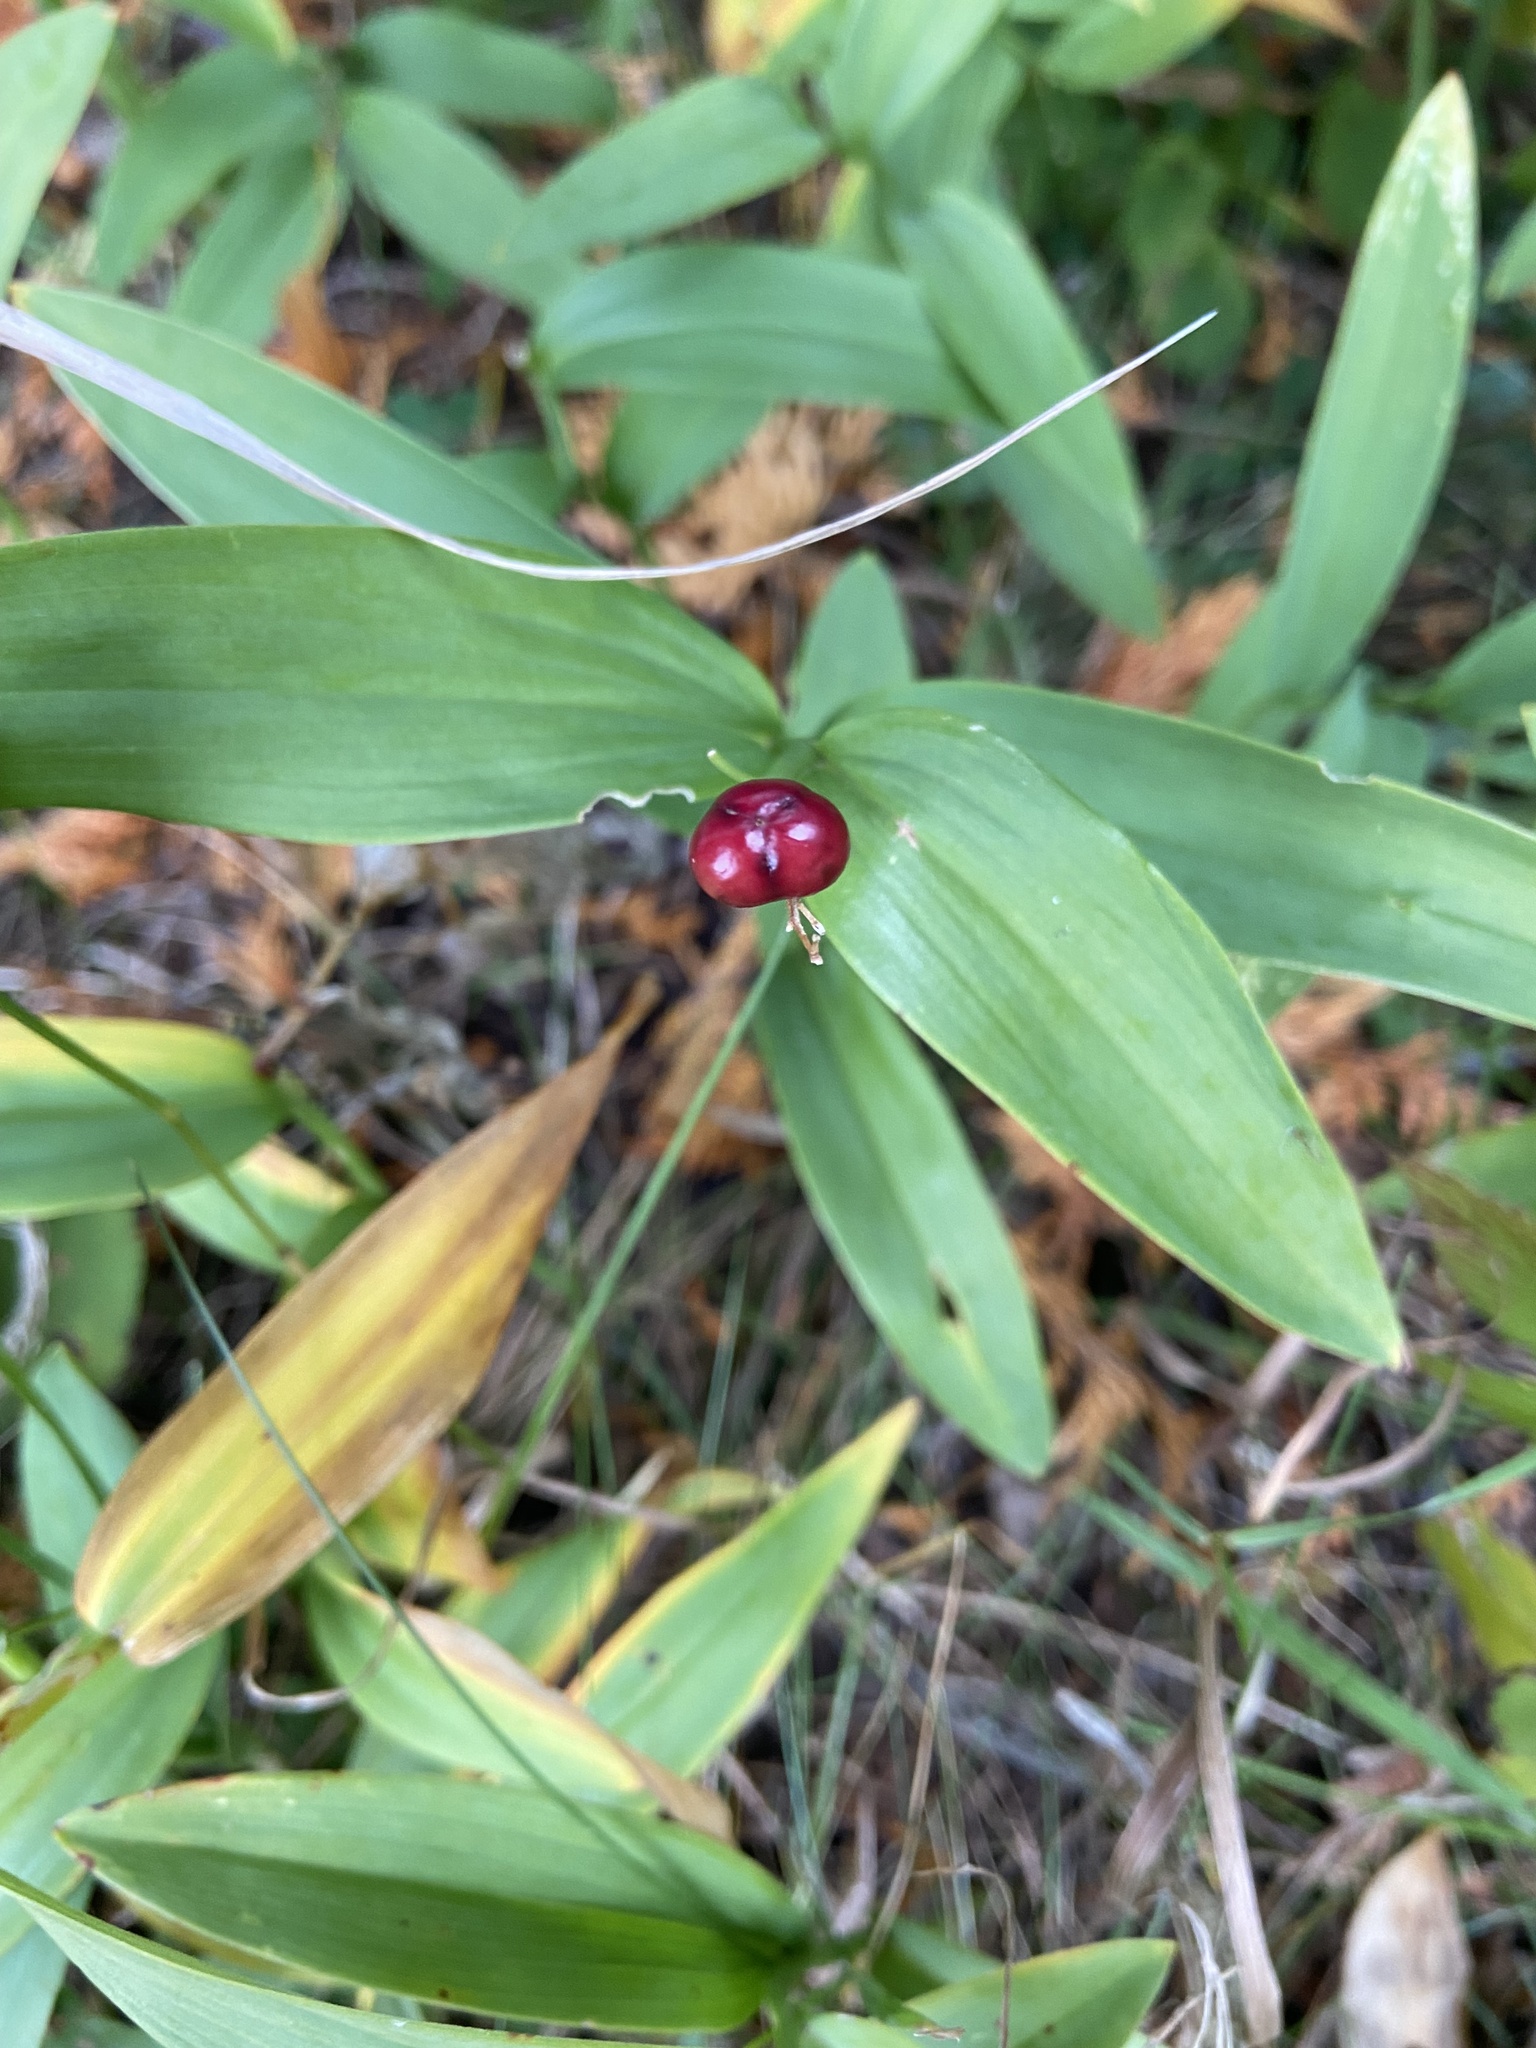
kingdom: Plantae
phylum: Tracheophyta
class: Liliopsida
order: Asparagales
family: Asparagaceae
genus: Maianthemum
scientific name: Maianthemum stellatum
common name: Little false solomon's seal
